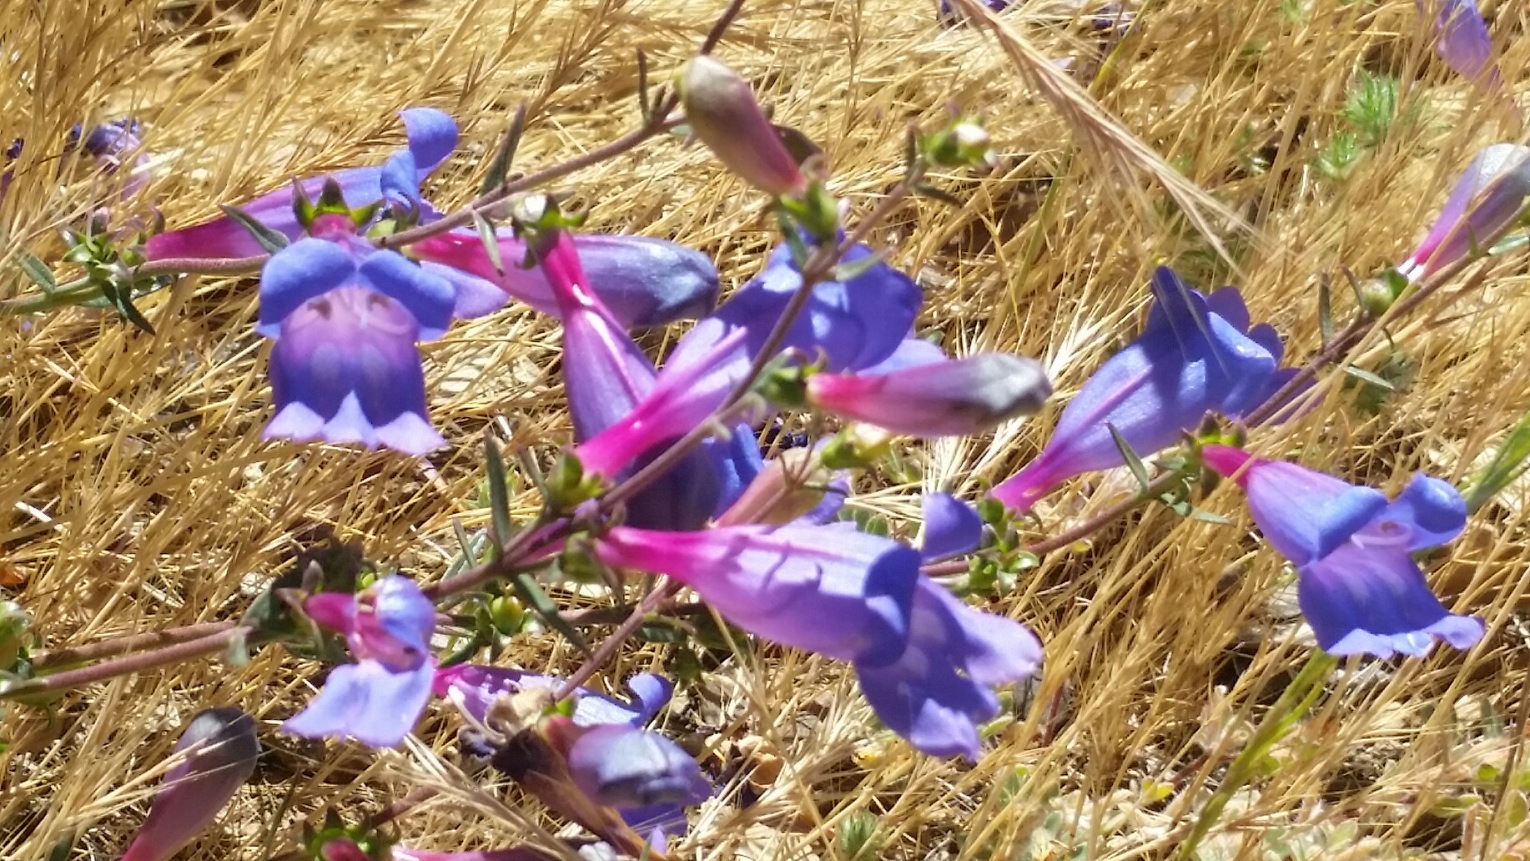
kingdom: Plantae
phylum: Tracheophyta
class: Magnoliopsida
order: Lamiales
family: Plantaginaceae
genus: Penstemon
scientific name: Penstemon heterophyllus
